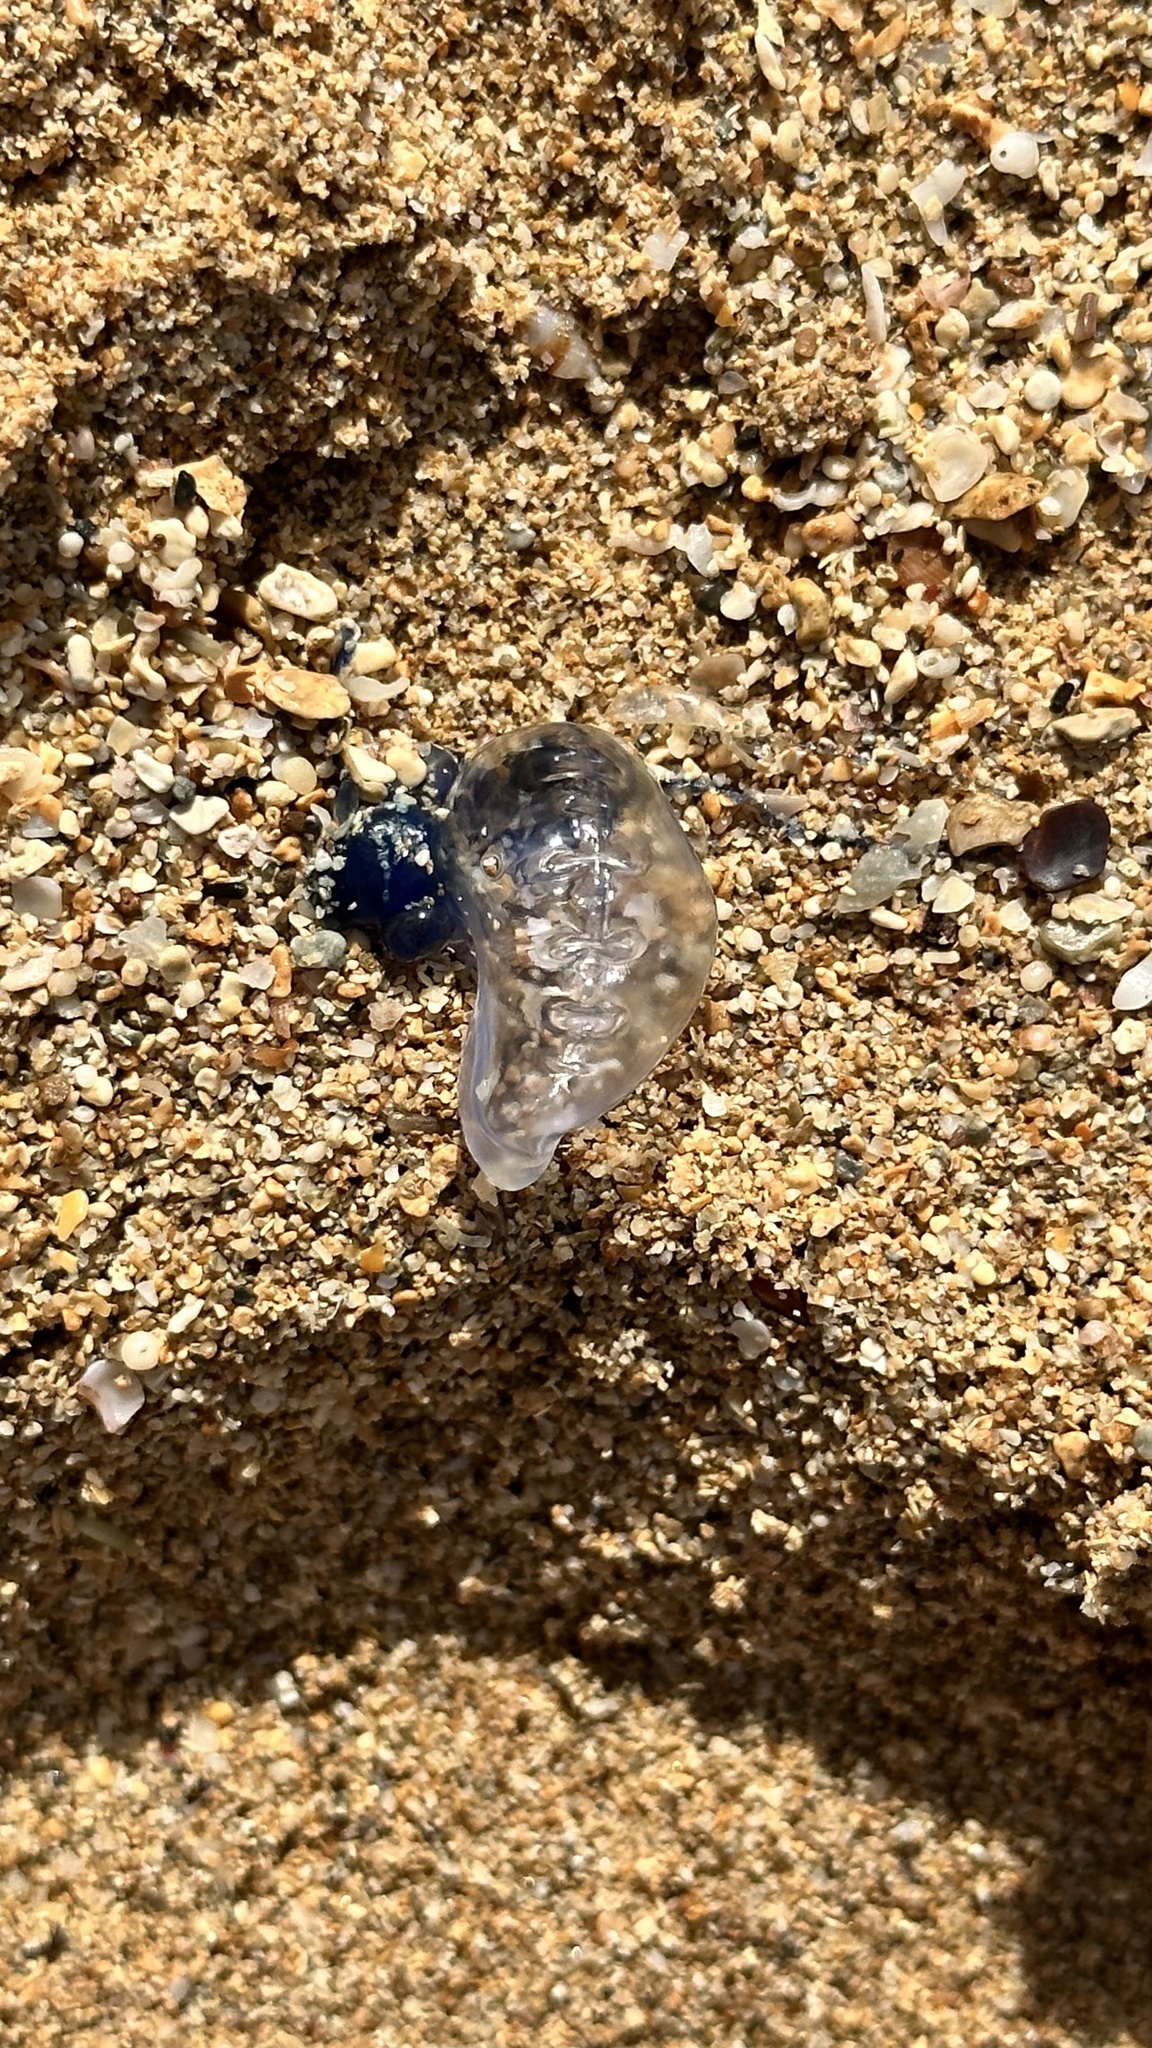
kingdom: Animalia
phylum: Cnidaria
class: Hydrozoa
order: Siphonophorae
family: Physaliidae
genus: Physalia
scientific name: Physalia physalis
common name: Portuguese man-of-war
